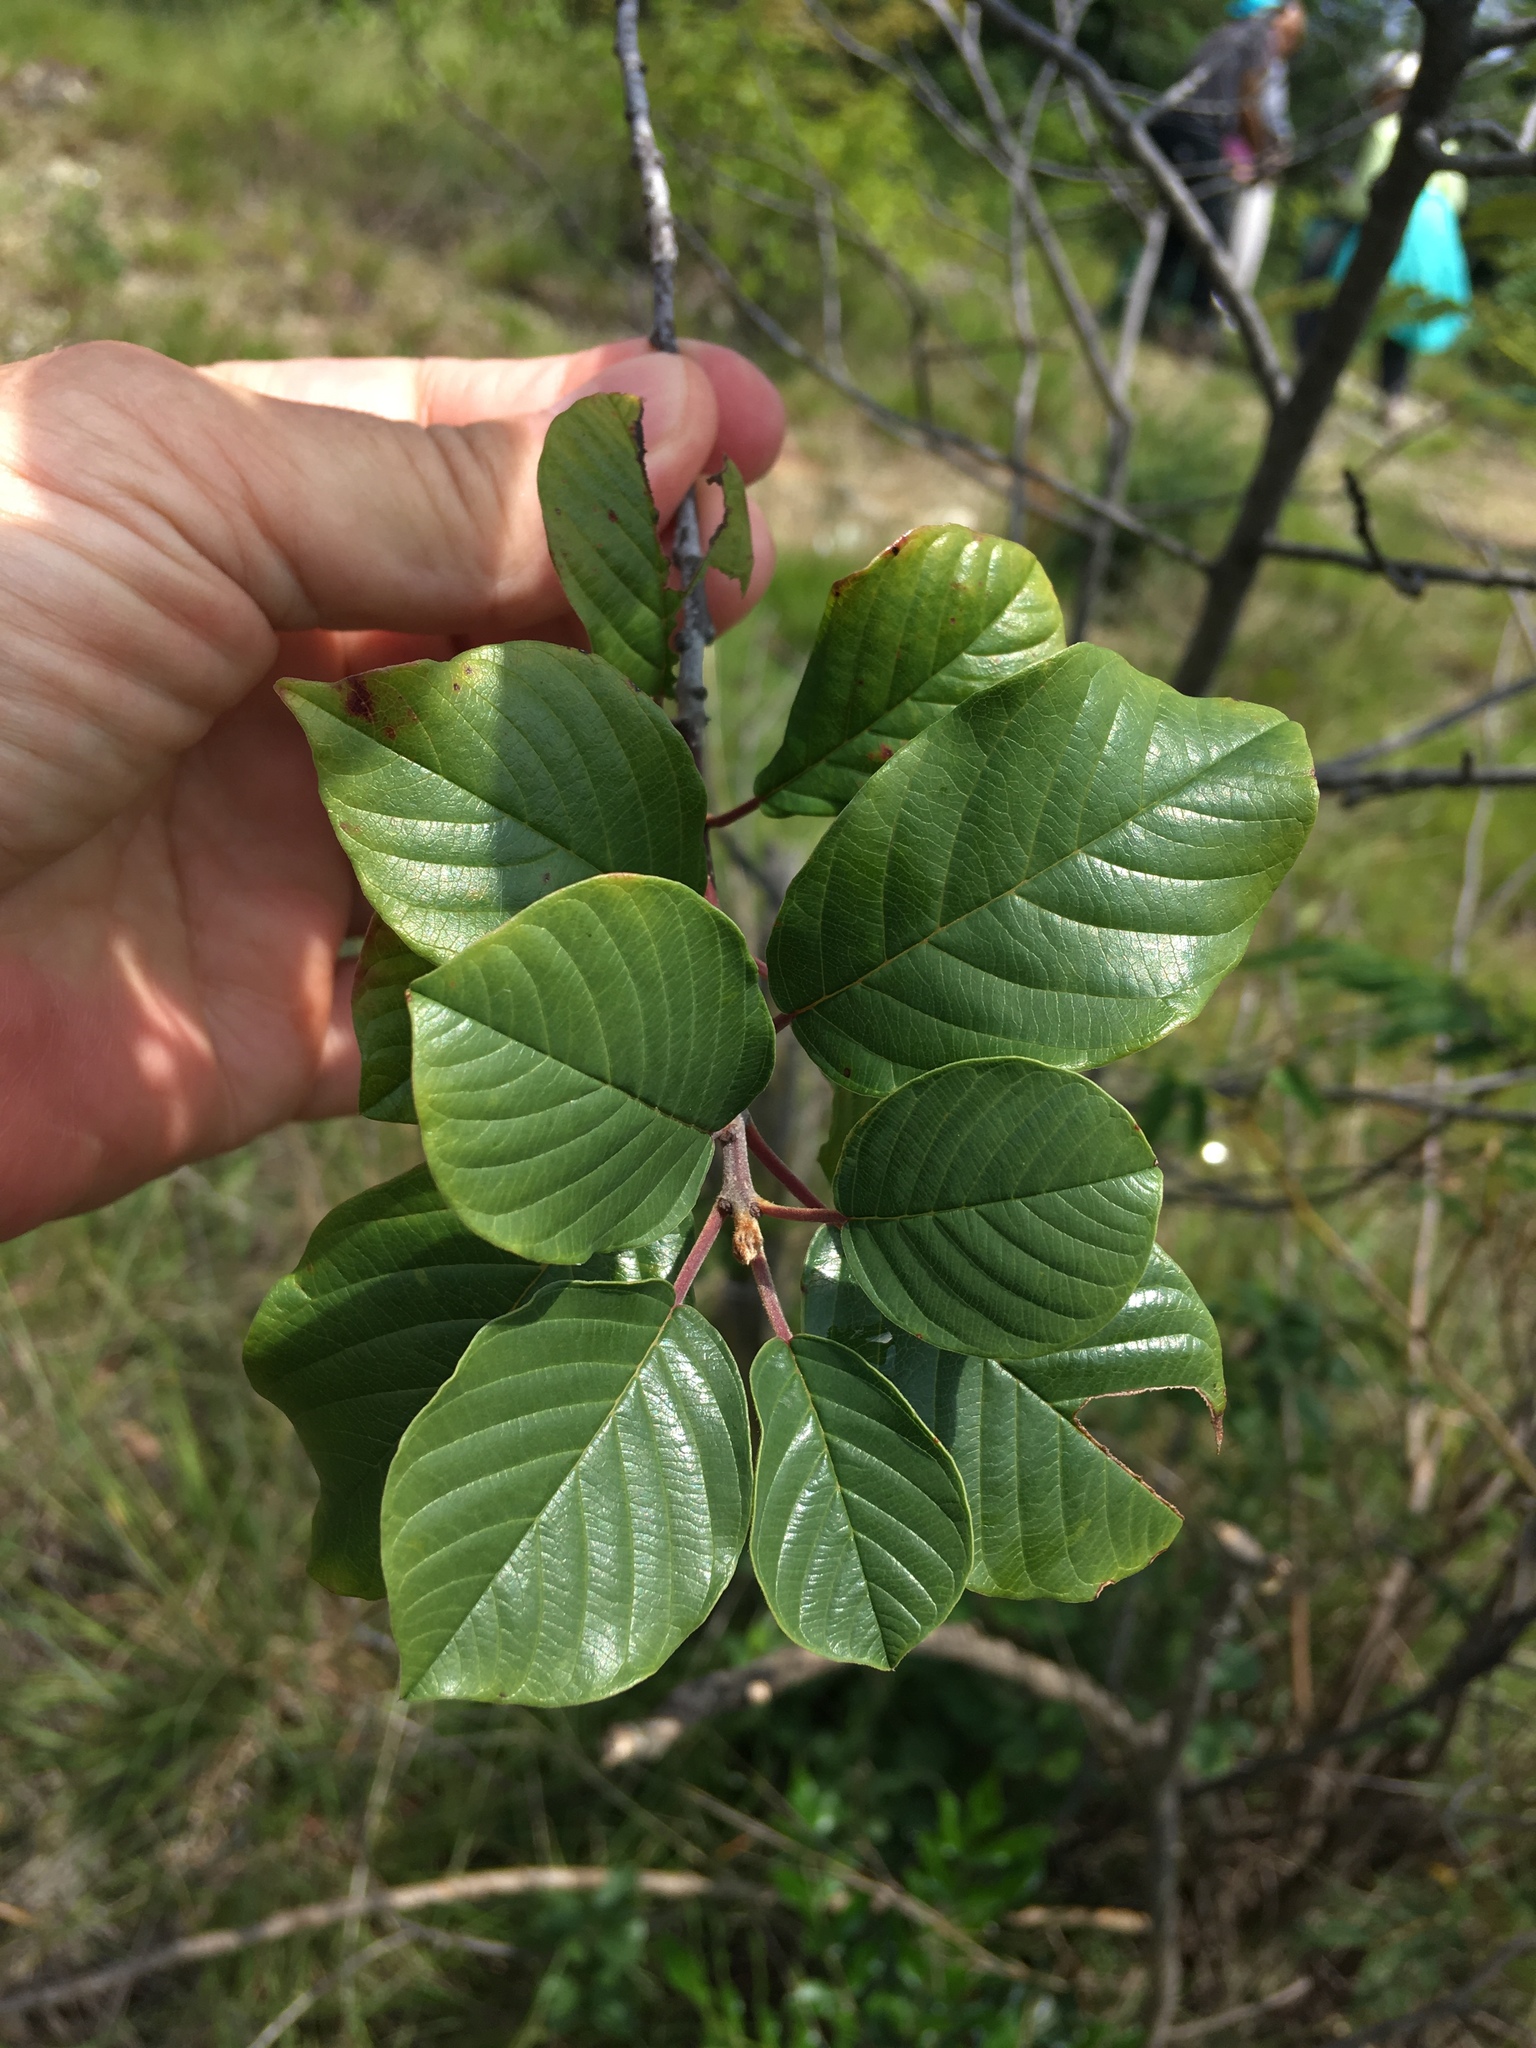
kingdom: Plantae
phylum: Tracheophyta
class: Magnoliopsida
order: Rosales
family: Rhamnaceae
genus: Frangula
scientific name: Frangula alnus
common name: Alder buckthorn
